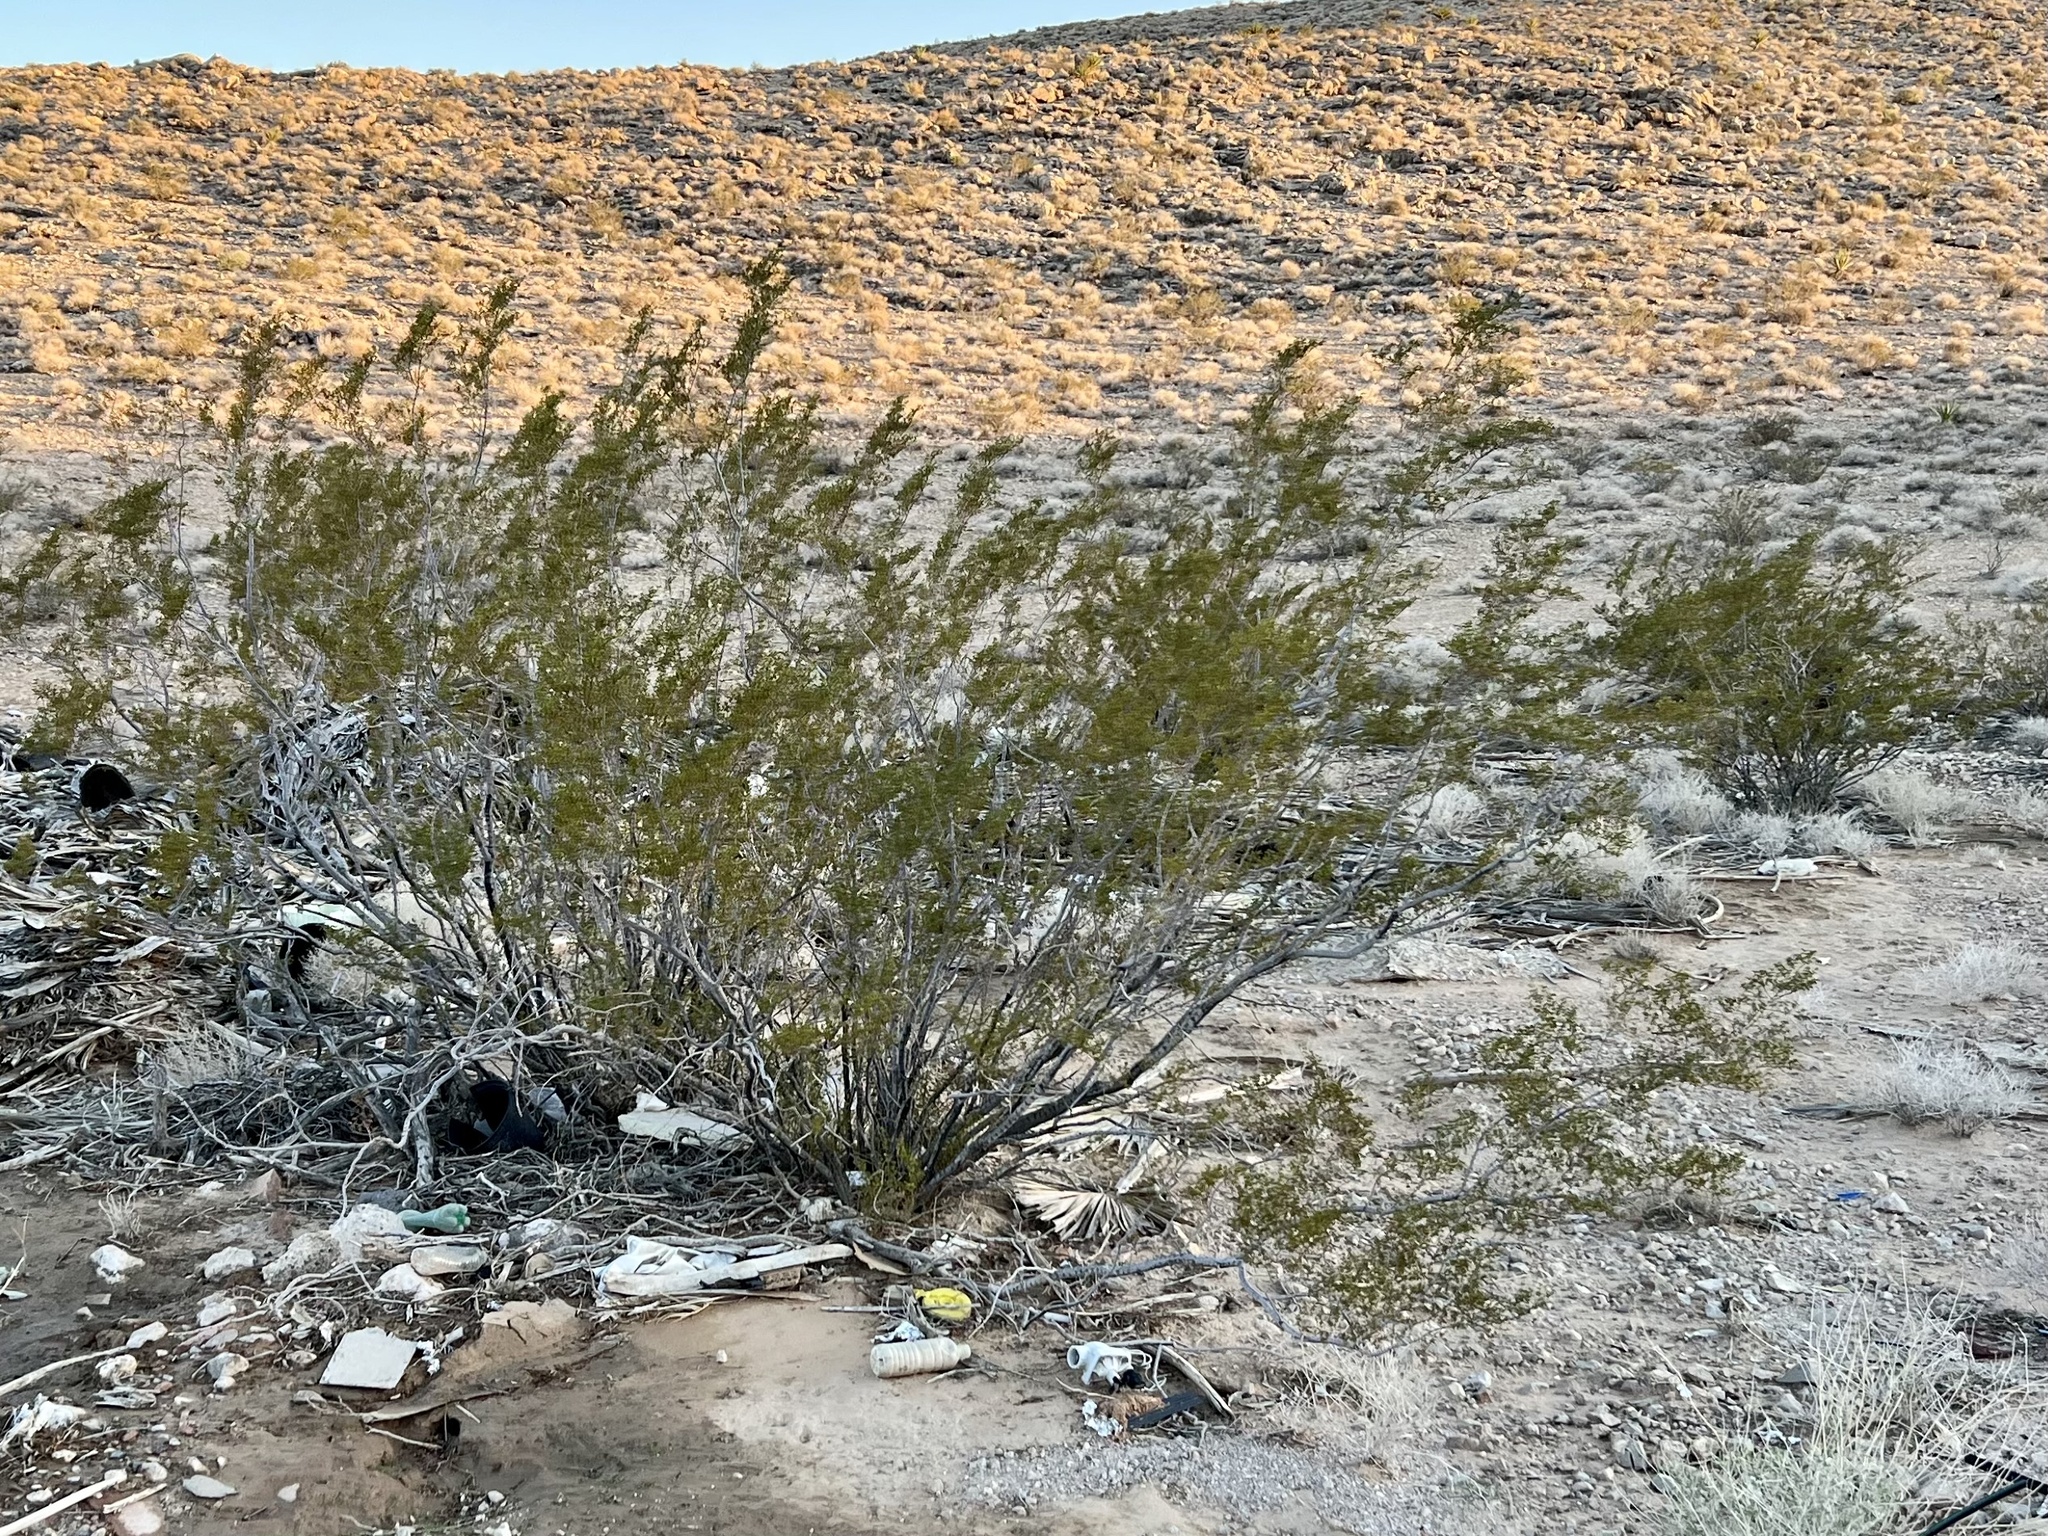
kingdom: Plantae
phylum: Tracheophyta
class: Magnoliopsida
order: Zygophyllales
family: Zygophyllaceae
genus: Larrea
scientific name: Larrea tridentata
